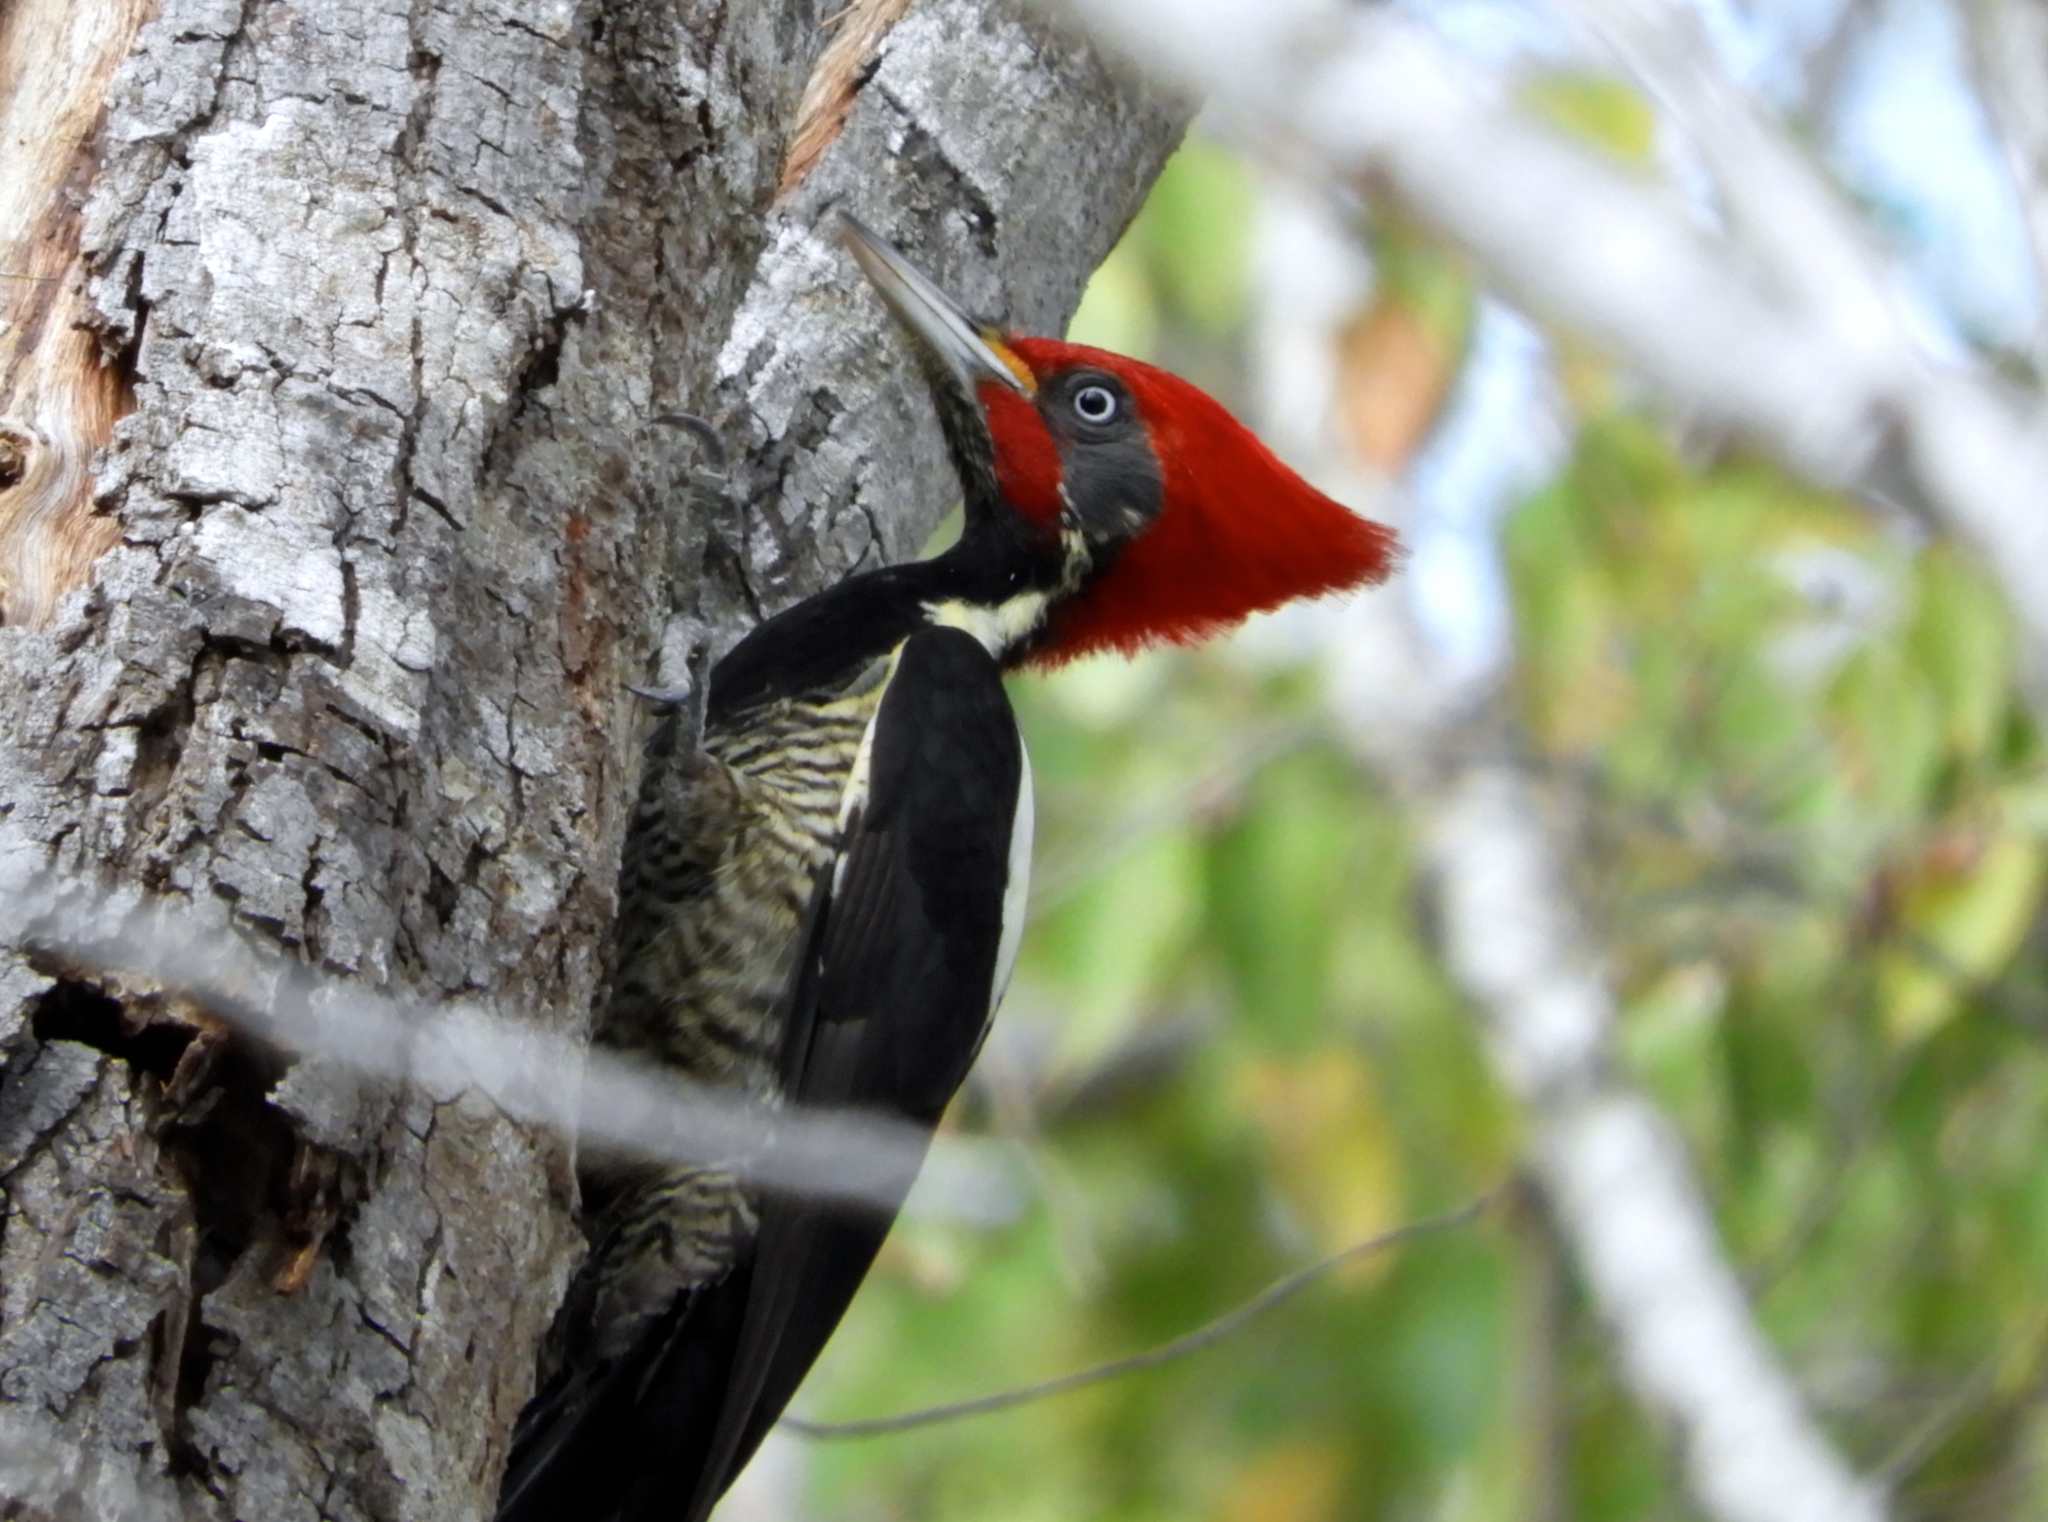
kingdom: Animalia
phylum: Chordata
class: Aves
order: Piciformes
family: Picidae
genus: Dryocopus
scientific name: Dryocopus lineatus
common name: Lineated woodpecker
